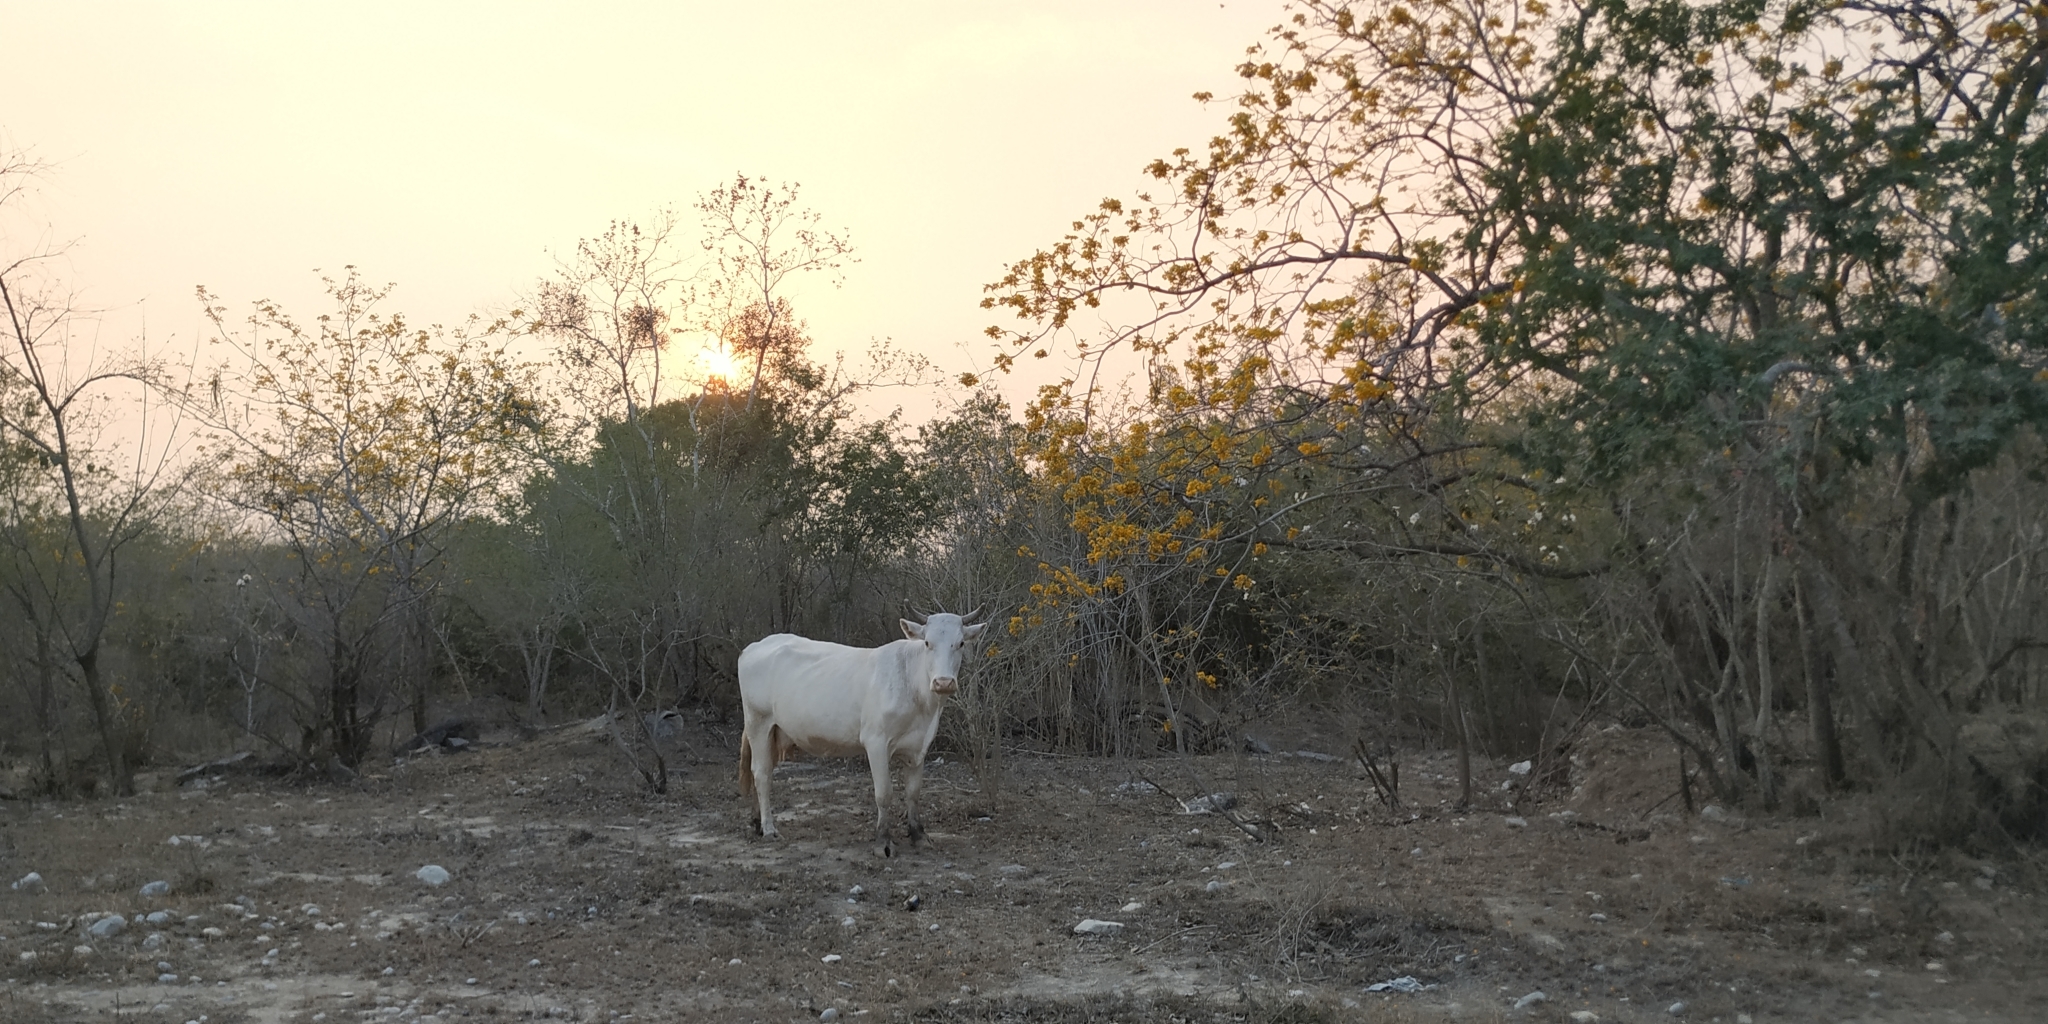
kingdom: Animalia
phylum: Chordata
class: Mammalia
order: Artiodactyla
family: Bovidae
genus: Bos
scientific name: Bos taurus
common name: Domesticated cattle
